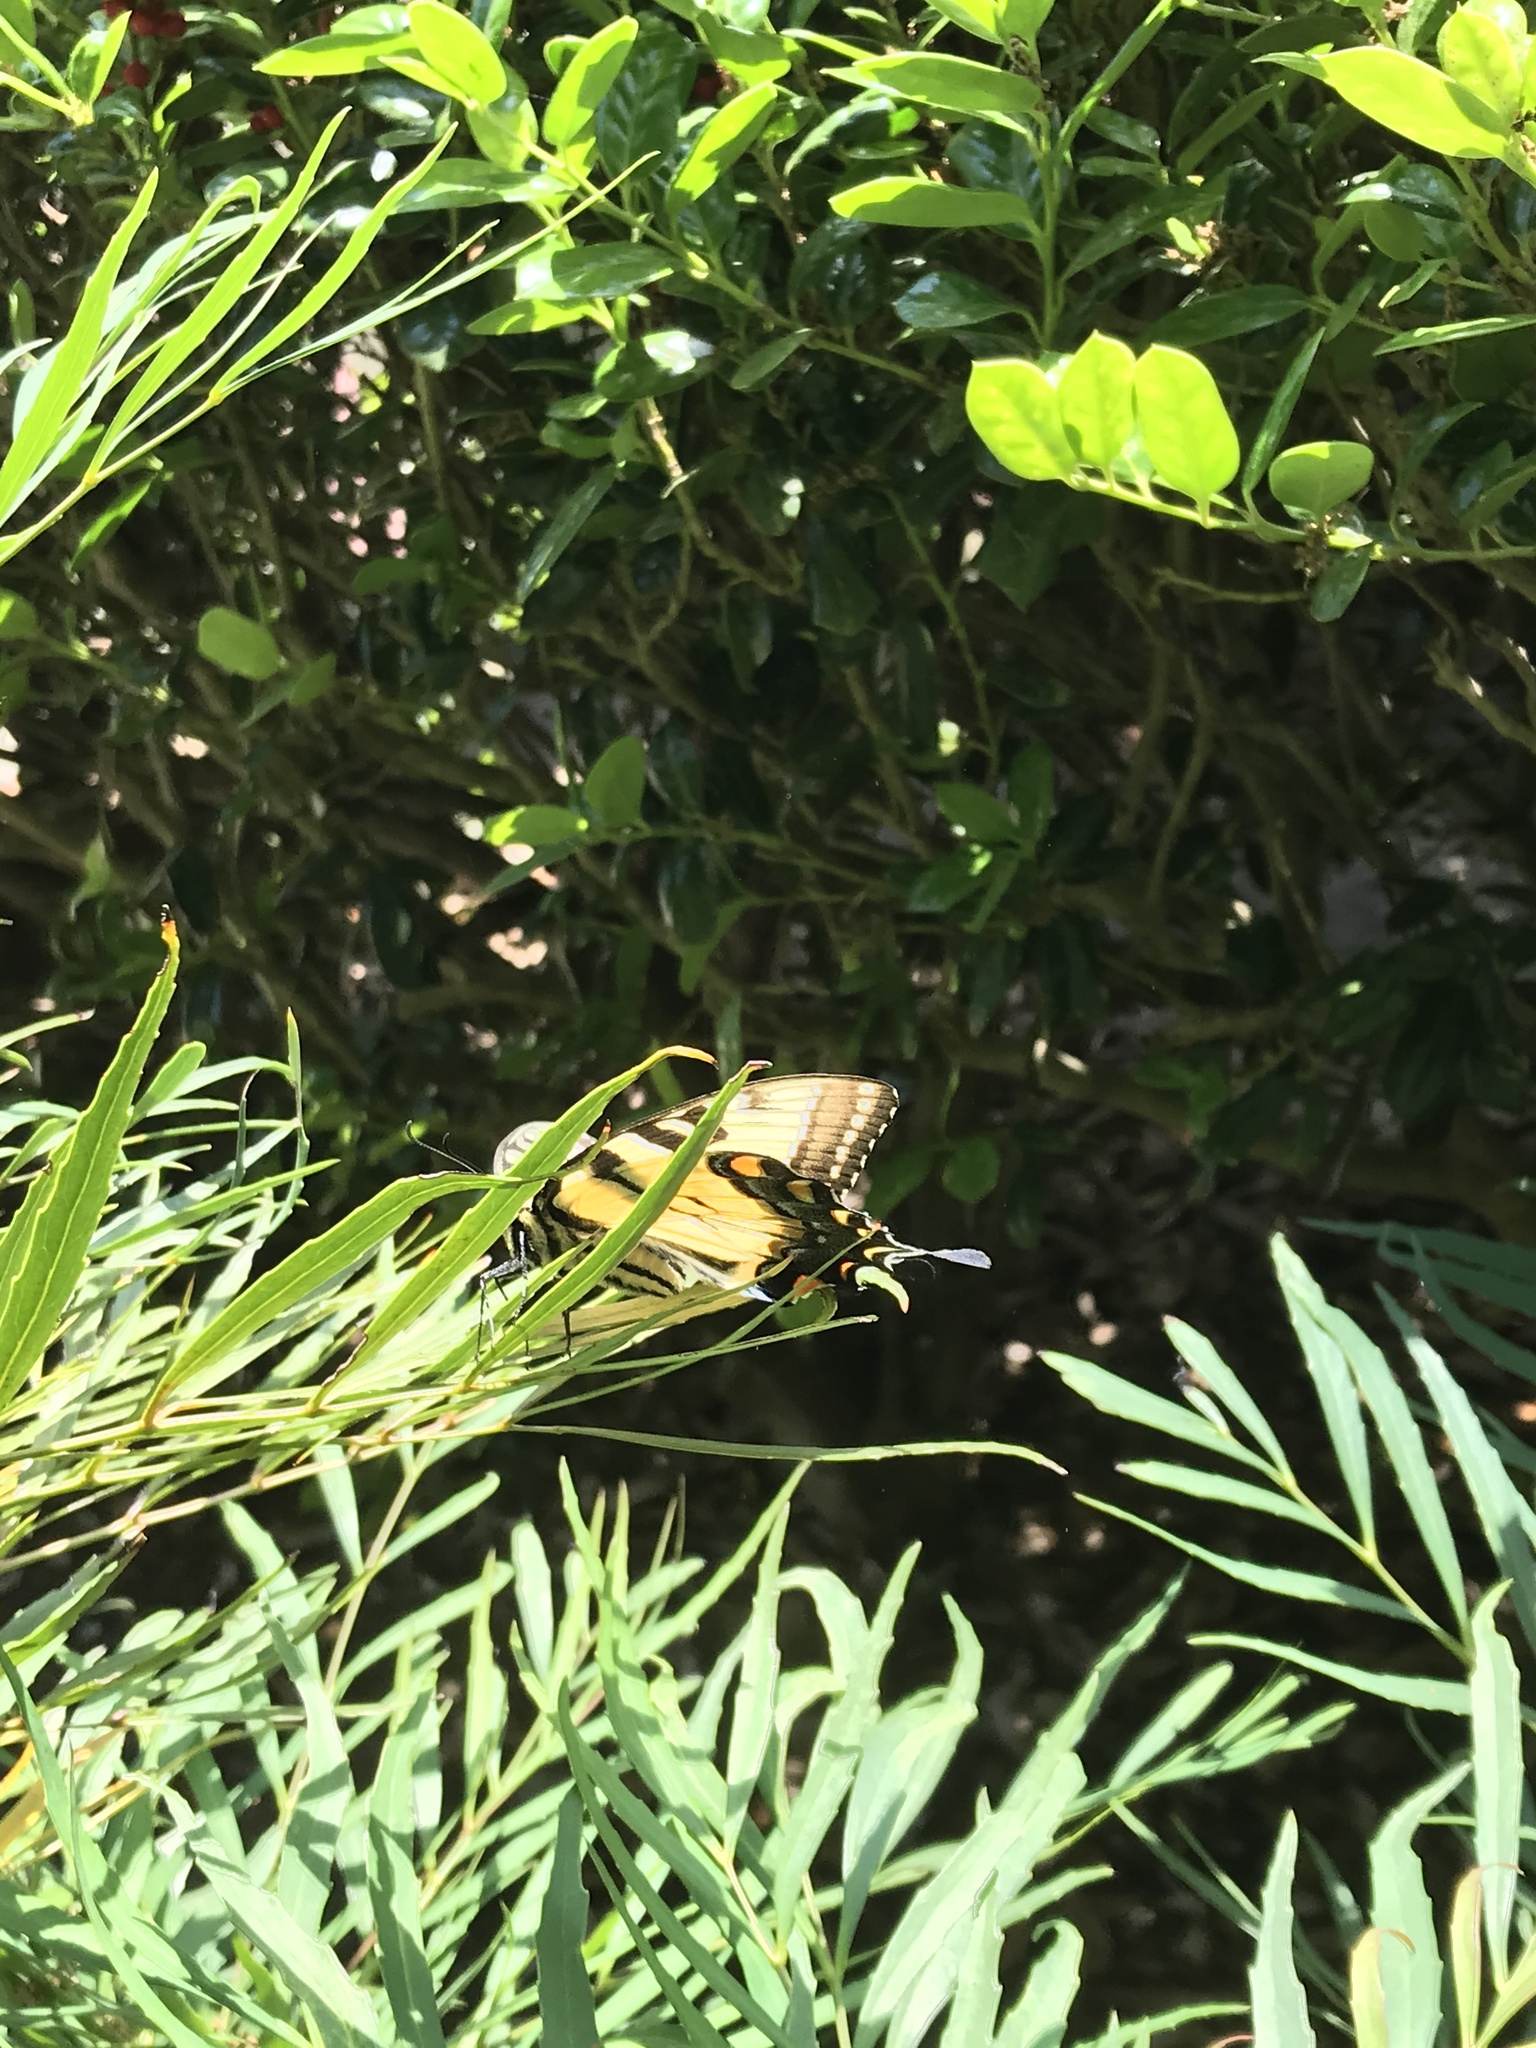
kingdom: Animalia
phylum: Arthropoda
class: Insecta
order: Lepidoptera
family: Papilionidae
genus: Papilio
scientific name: Papilio glaucus
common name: Tiger swallowtail
